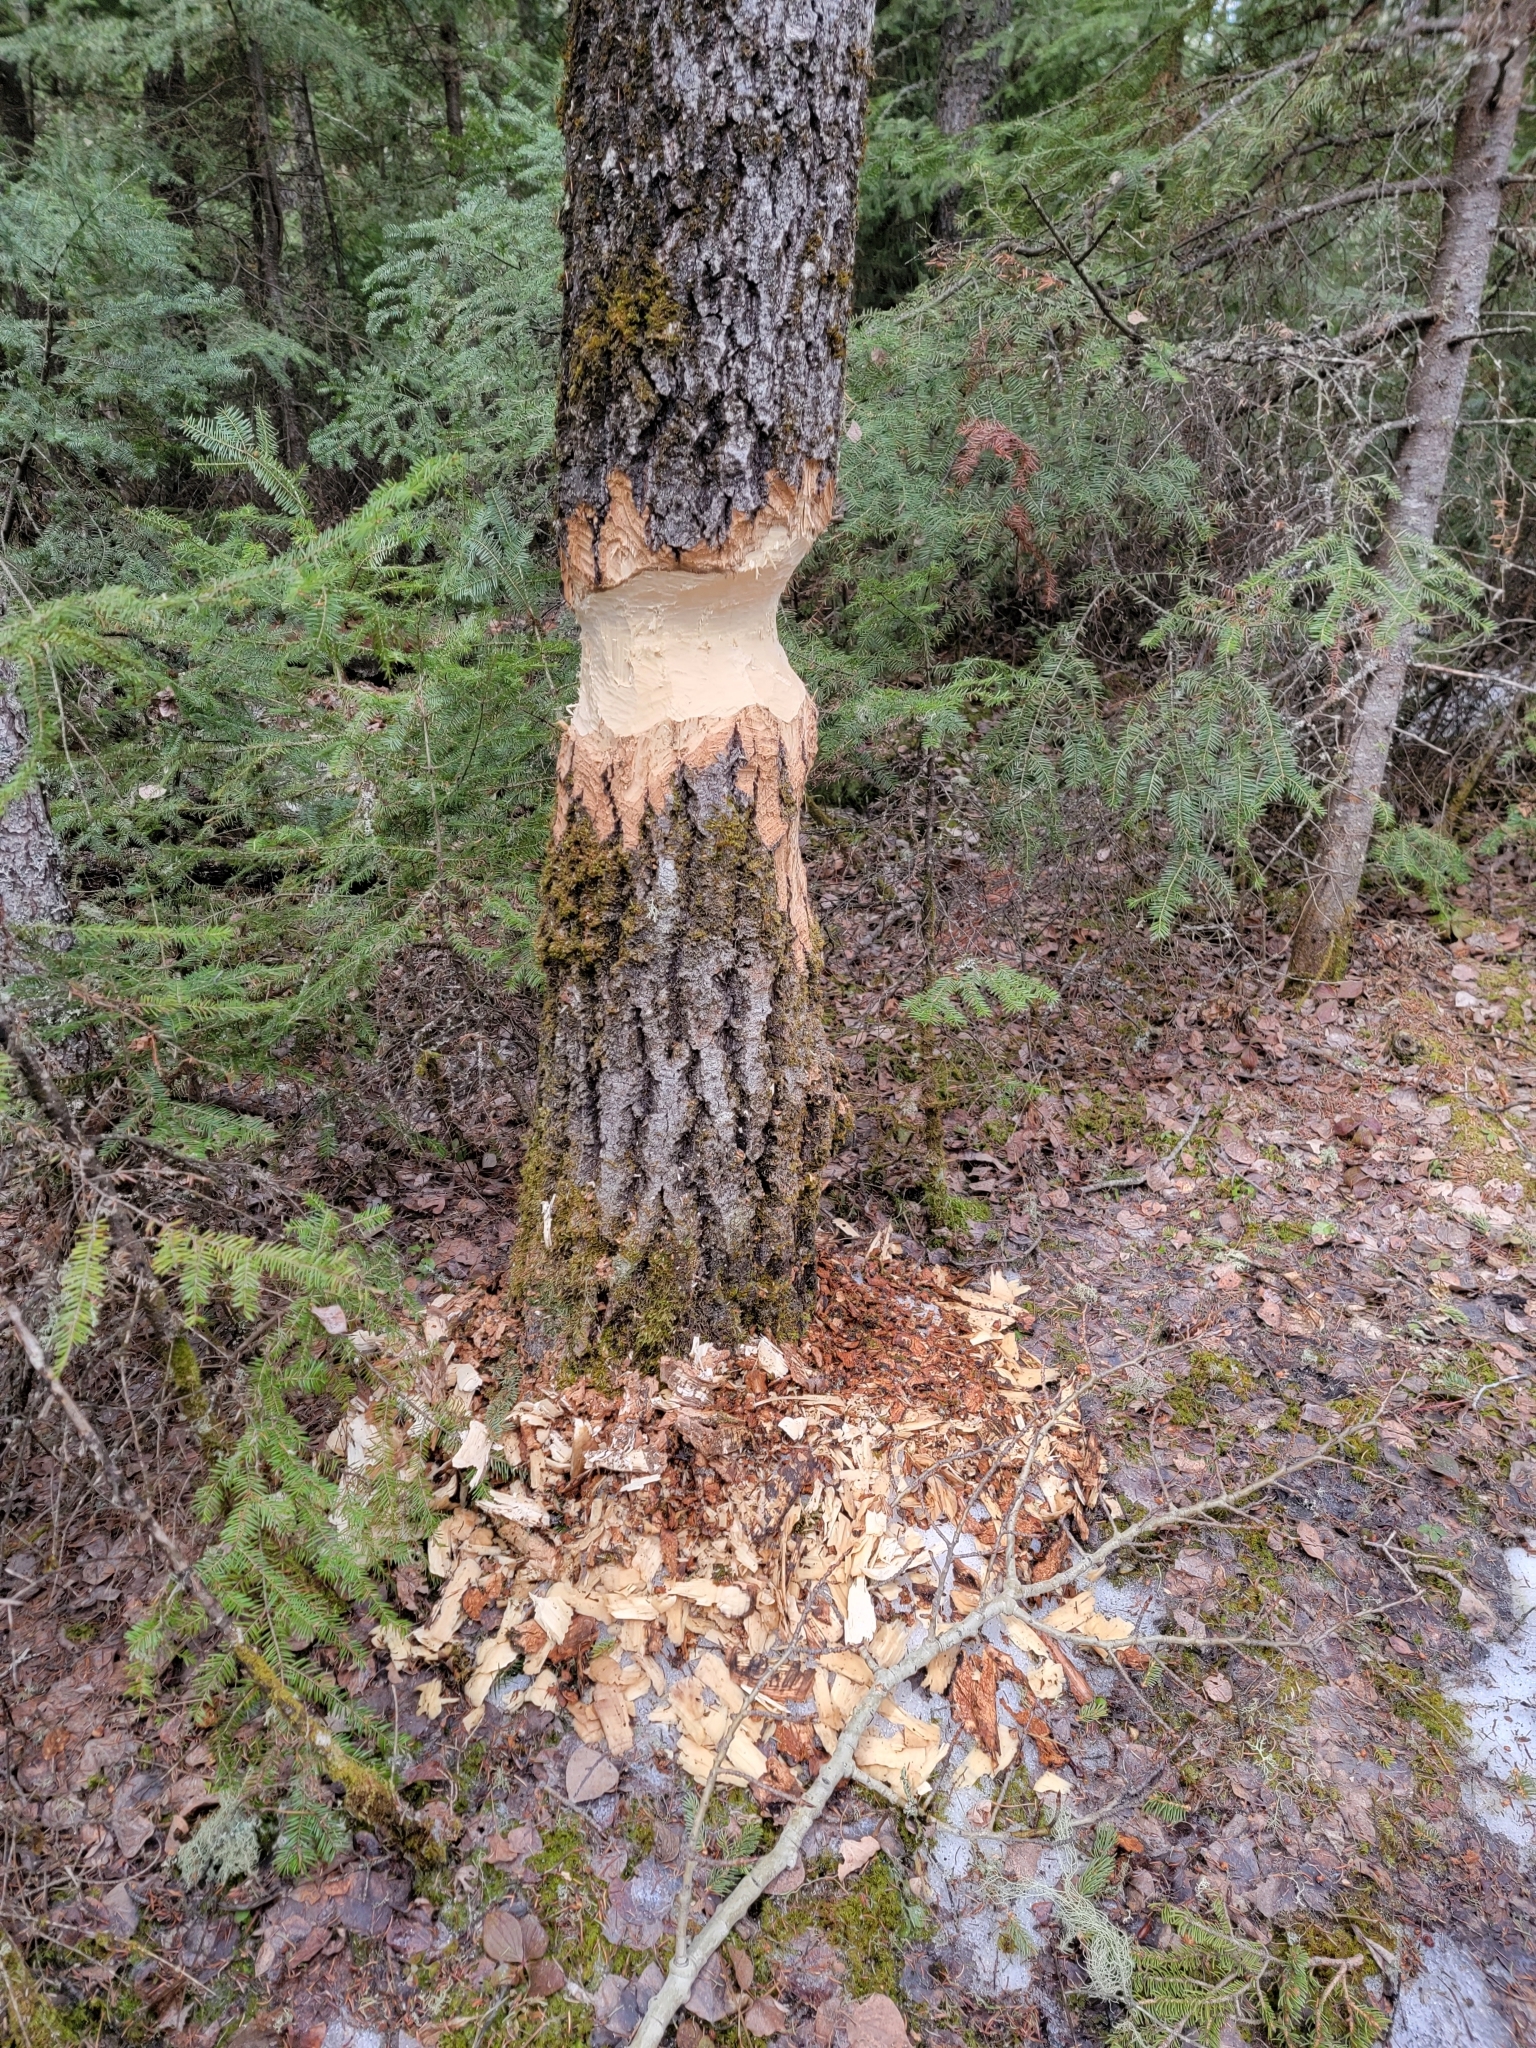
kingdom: Animalia
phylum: Chordata
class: Mammalia
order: Rodentia
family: Castoridae
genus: Castor
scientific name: Castor canadensis
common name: American beaver
